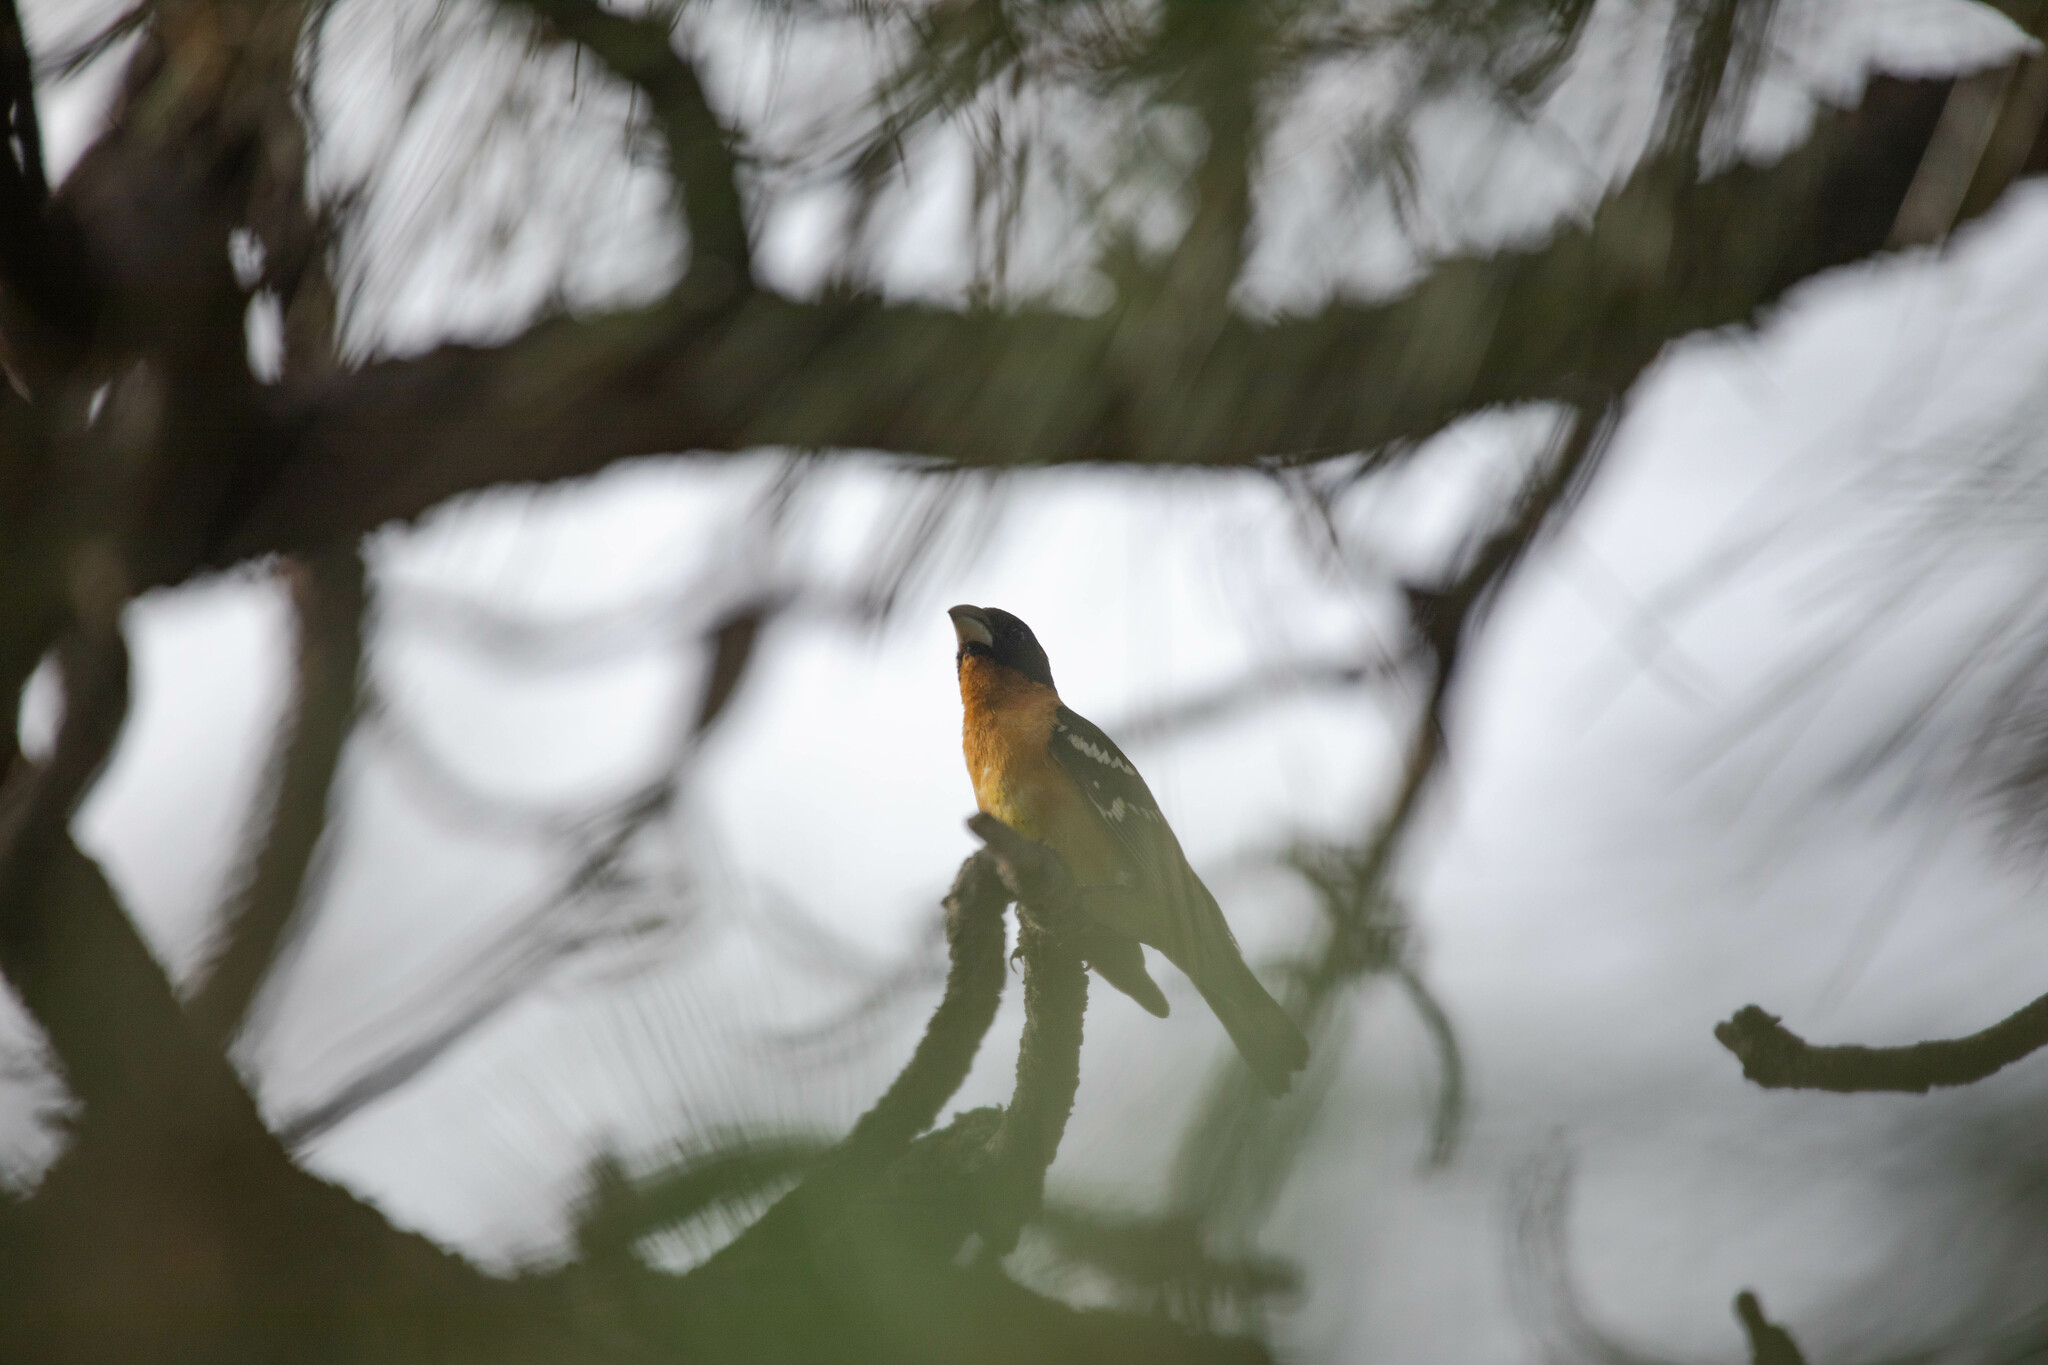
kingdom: Animalia
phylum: Chordata
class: Aves
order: Passeriformes
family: Cardinalidae
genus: Pheucticus
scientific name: Pheucticus melanocephalus
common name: Black-headed grosbeak
